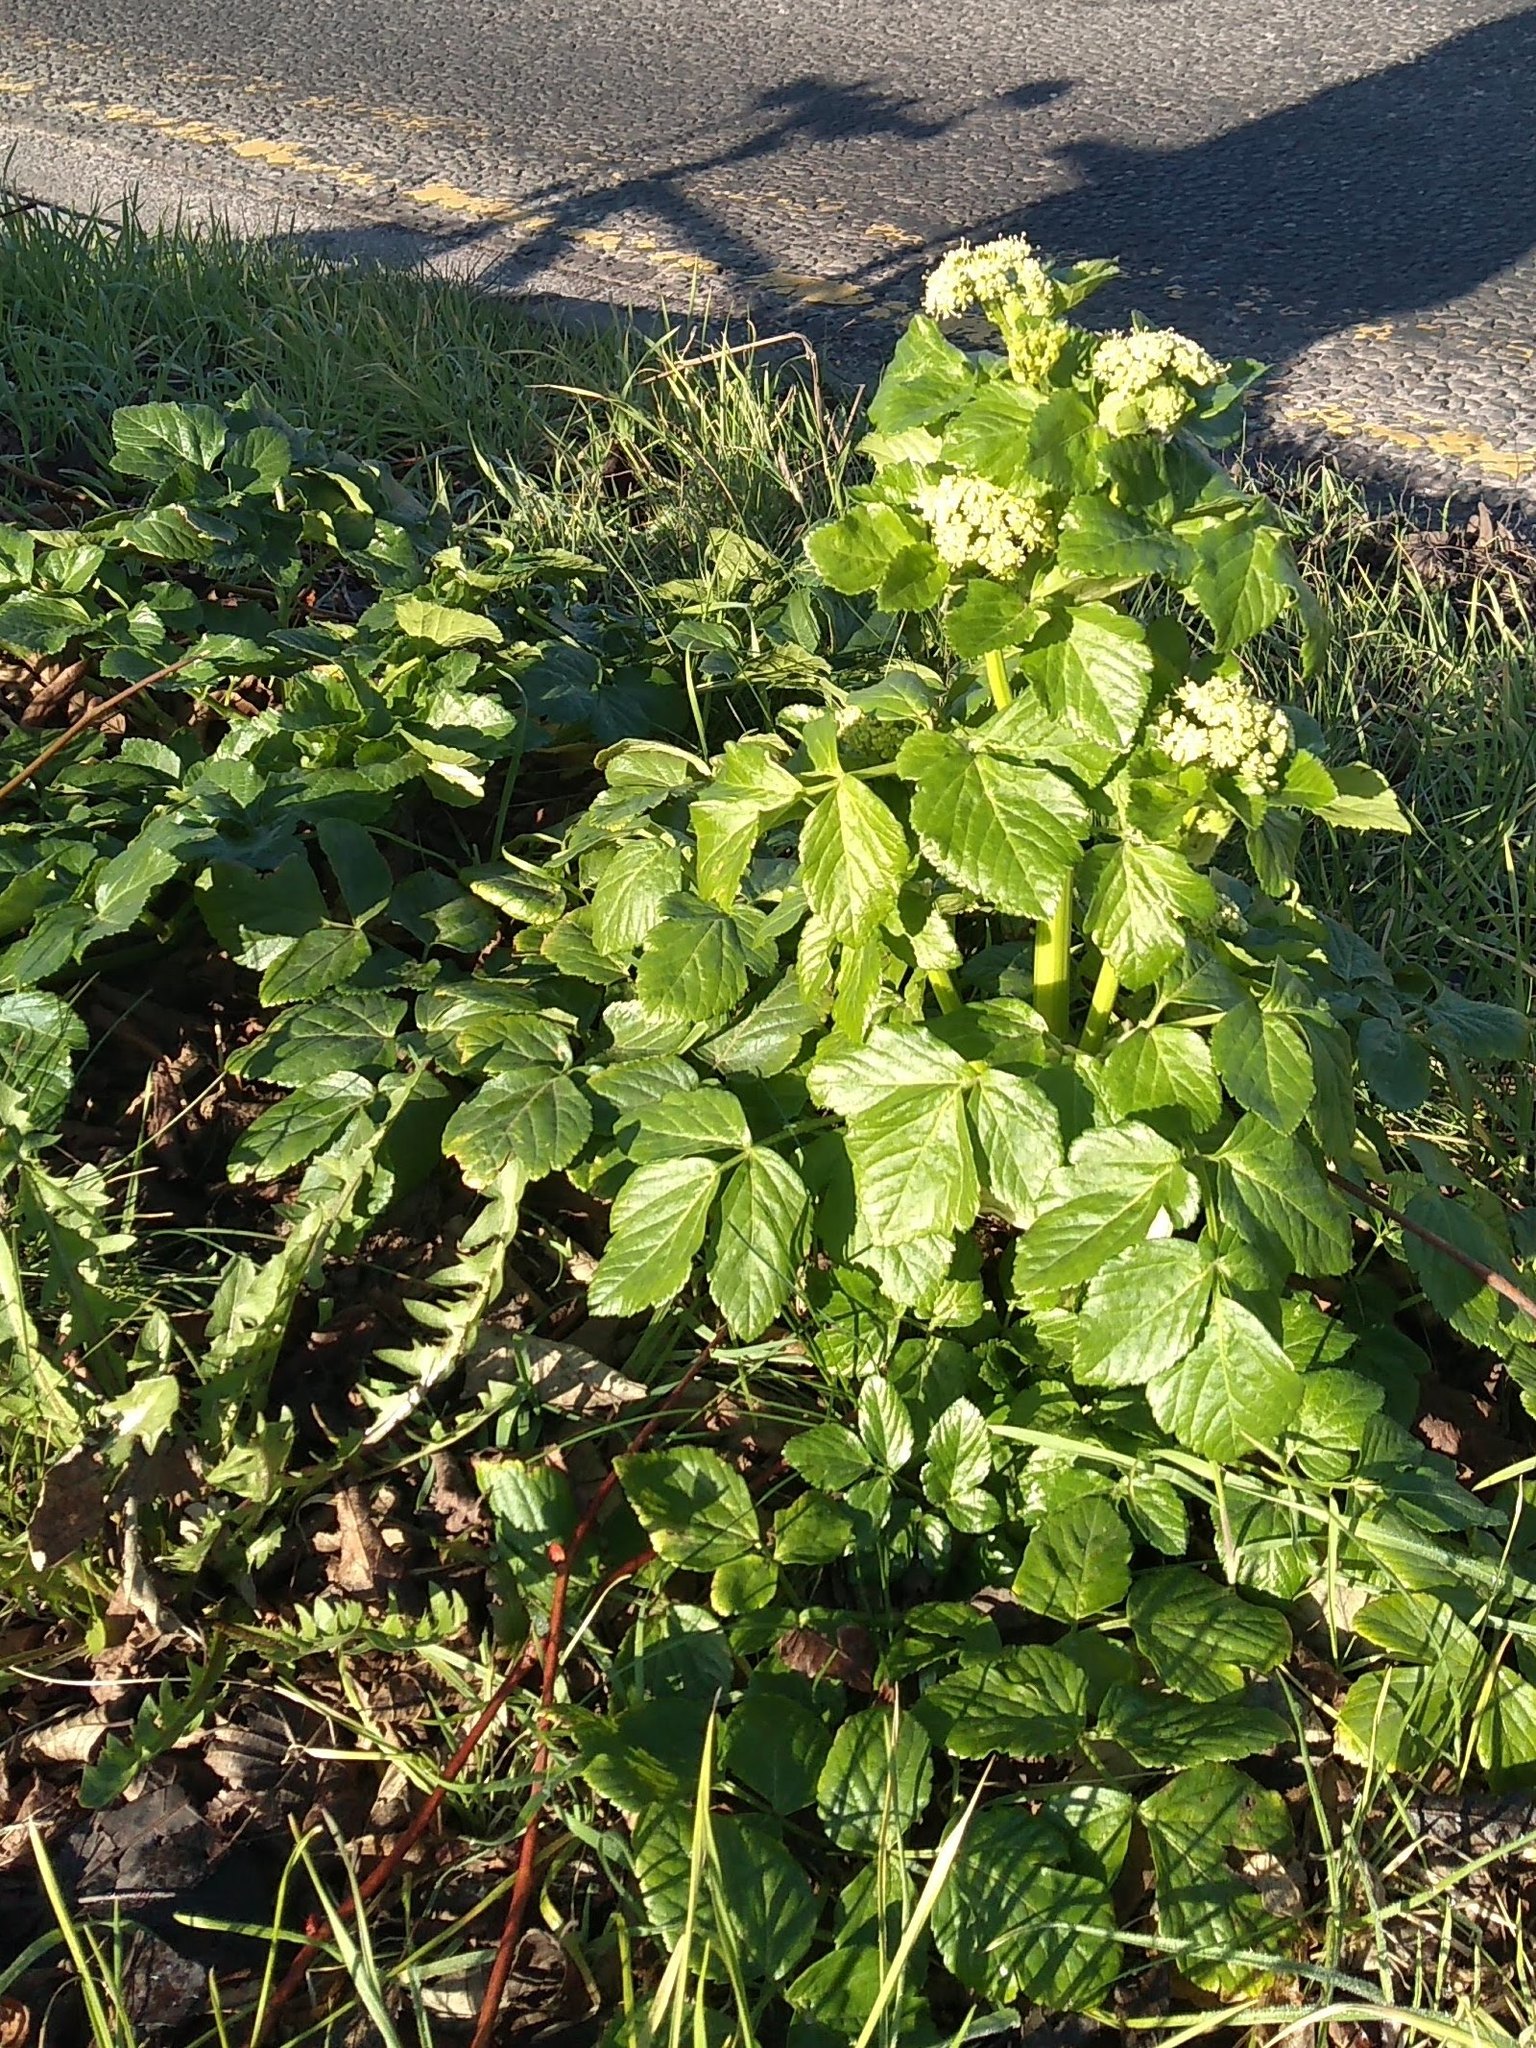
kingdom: Plantae
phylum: Tracheophyta
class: Magnoliopsida
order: Apiales
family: Apiaceae
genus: Smyrnium
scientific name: Smyrnium olusatrum
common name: Alexanders
